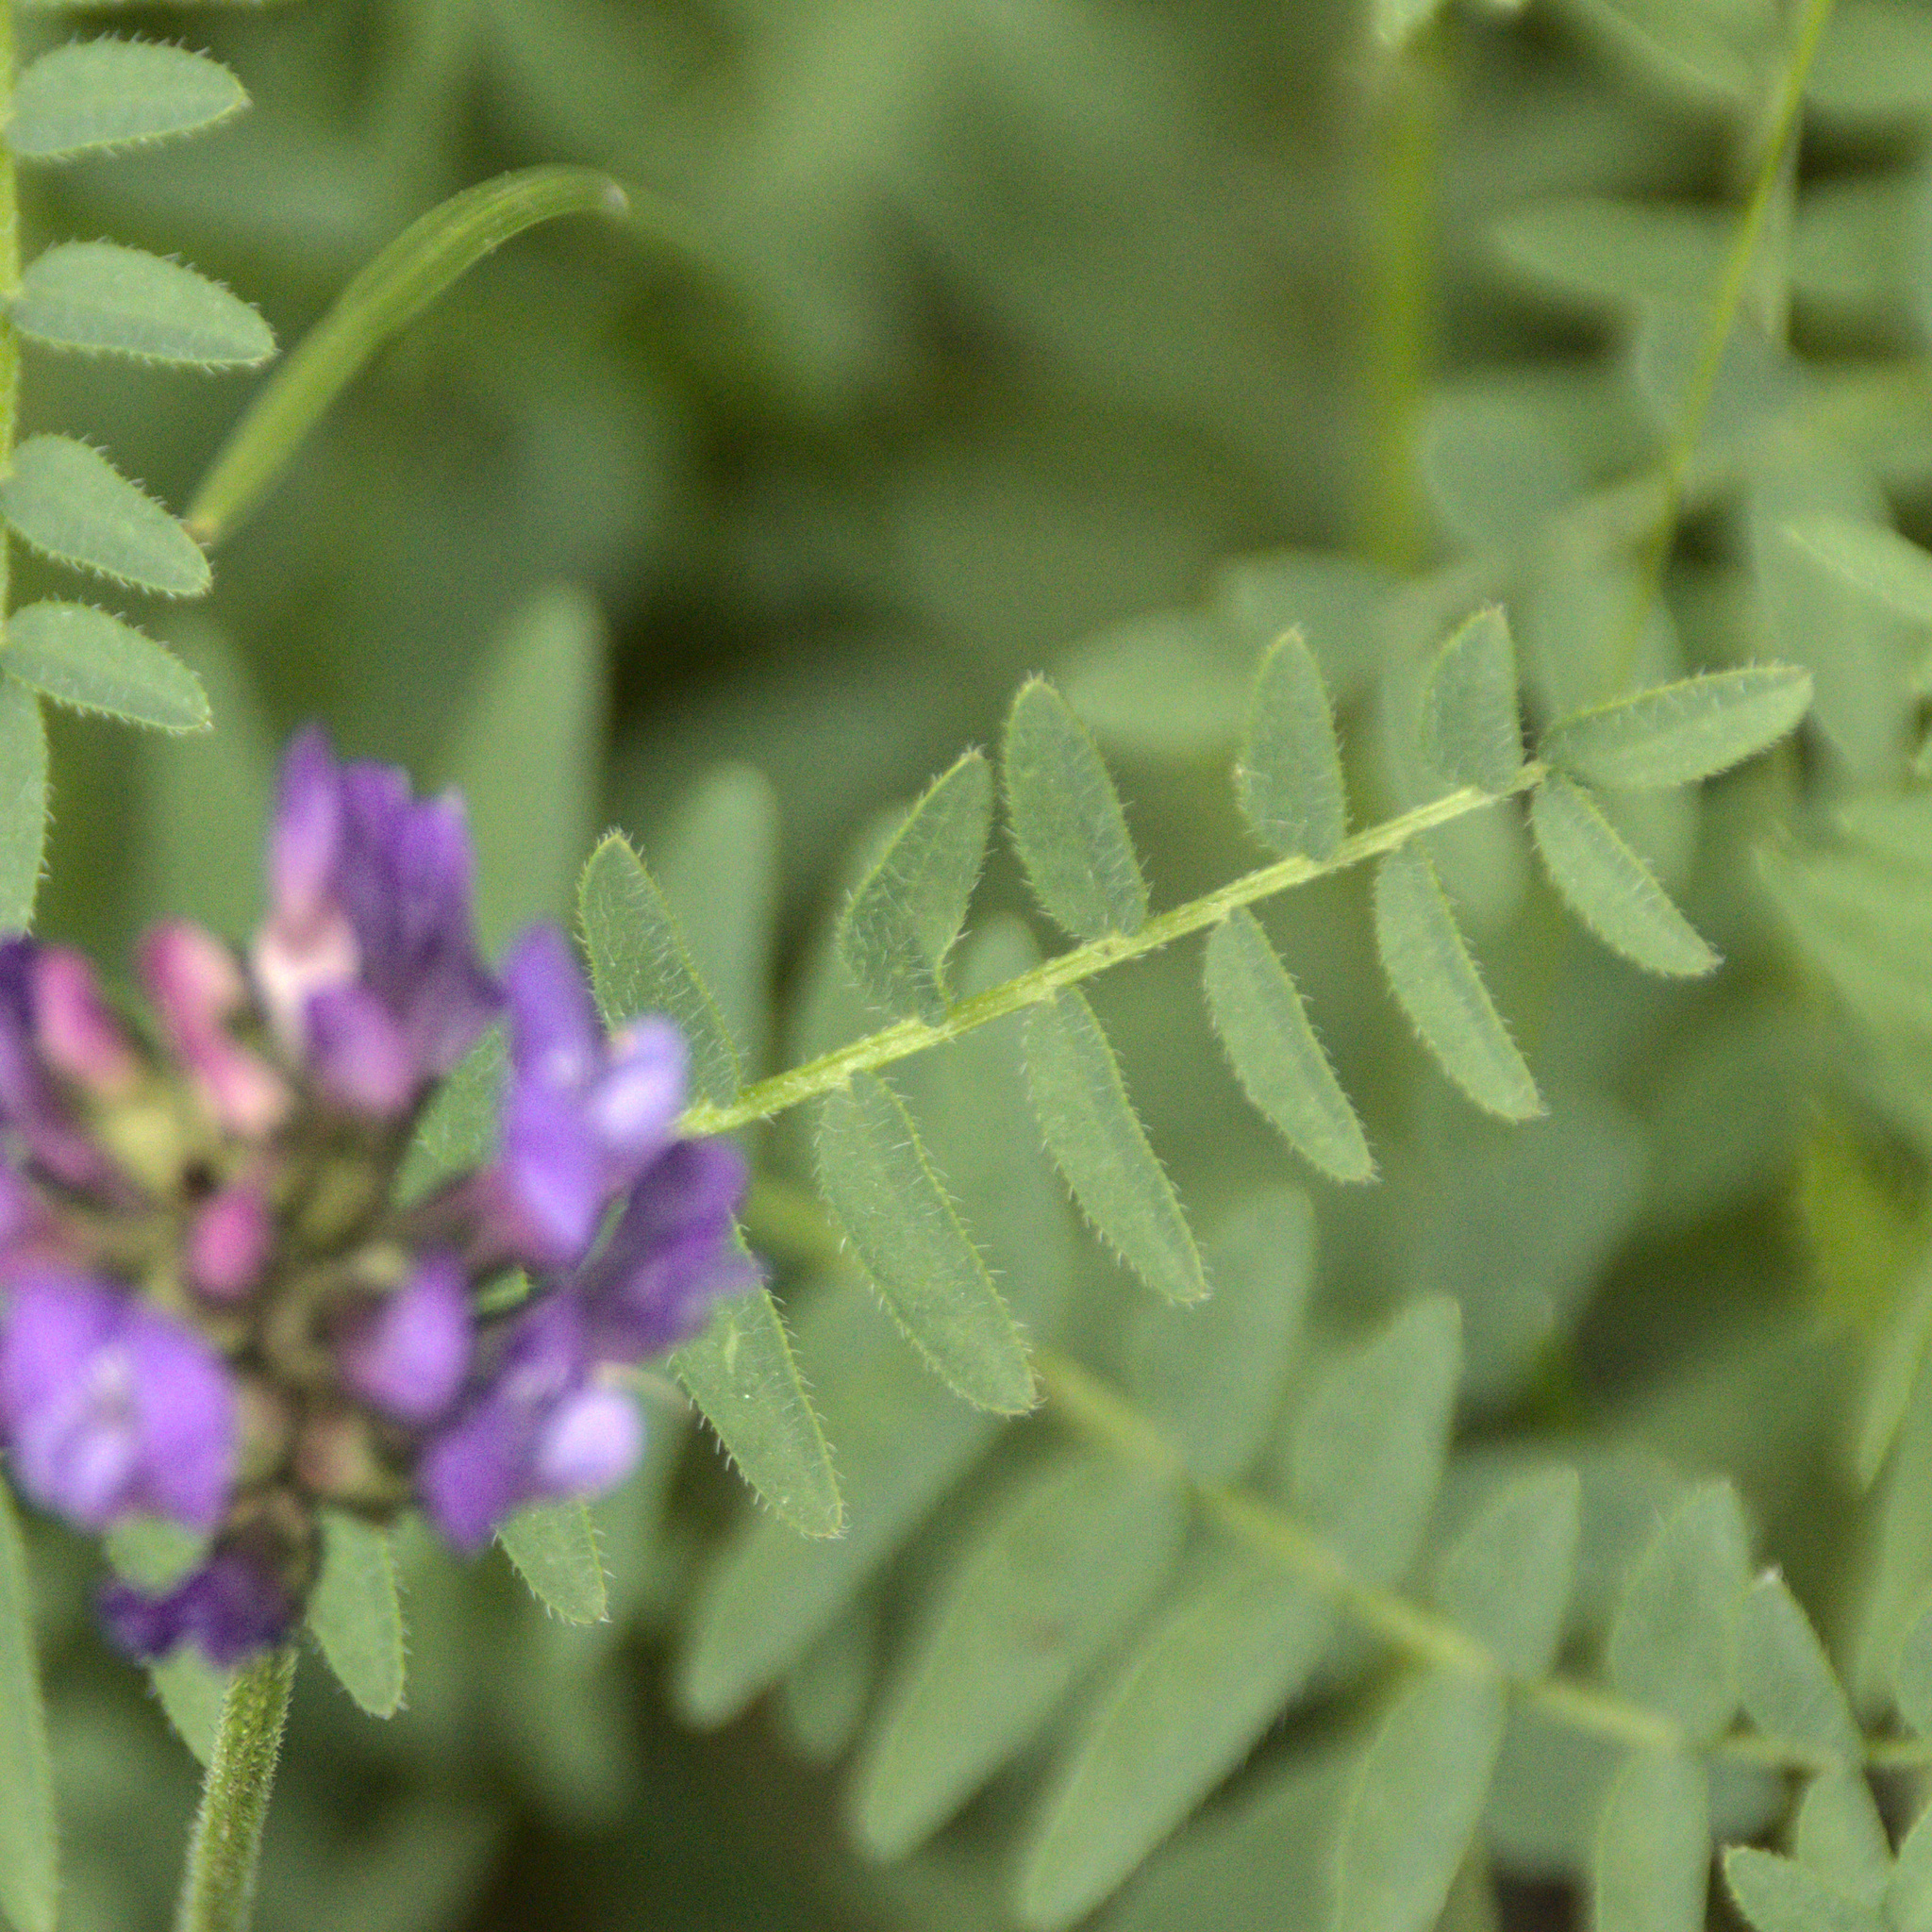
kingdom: Plantae
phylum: Tracheophyta
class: Magnoliopsida
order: Fabales
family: Fabaceae
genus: Astragalus
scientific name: Astragalus danicus
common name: Purple milk-vetch
